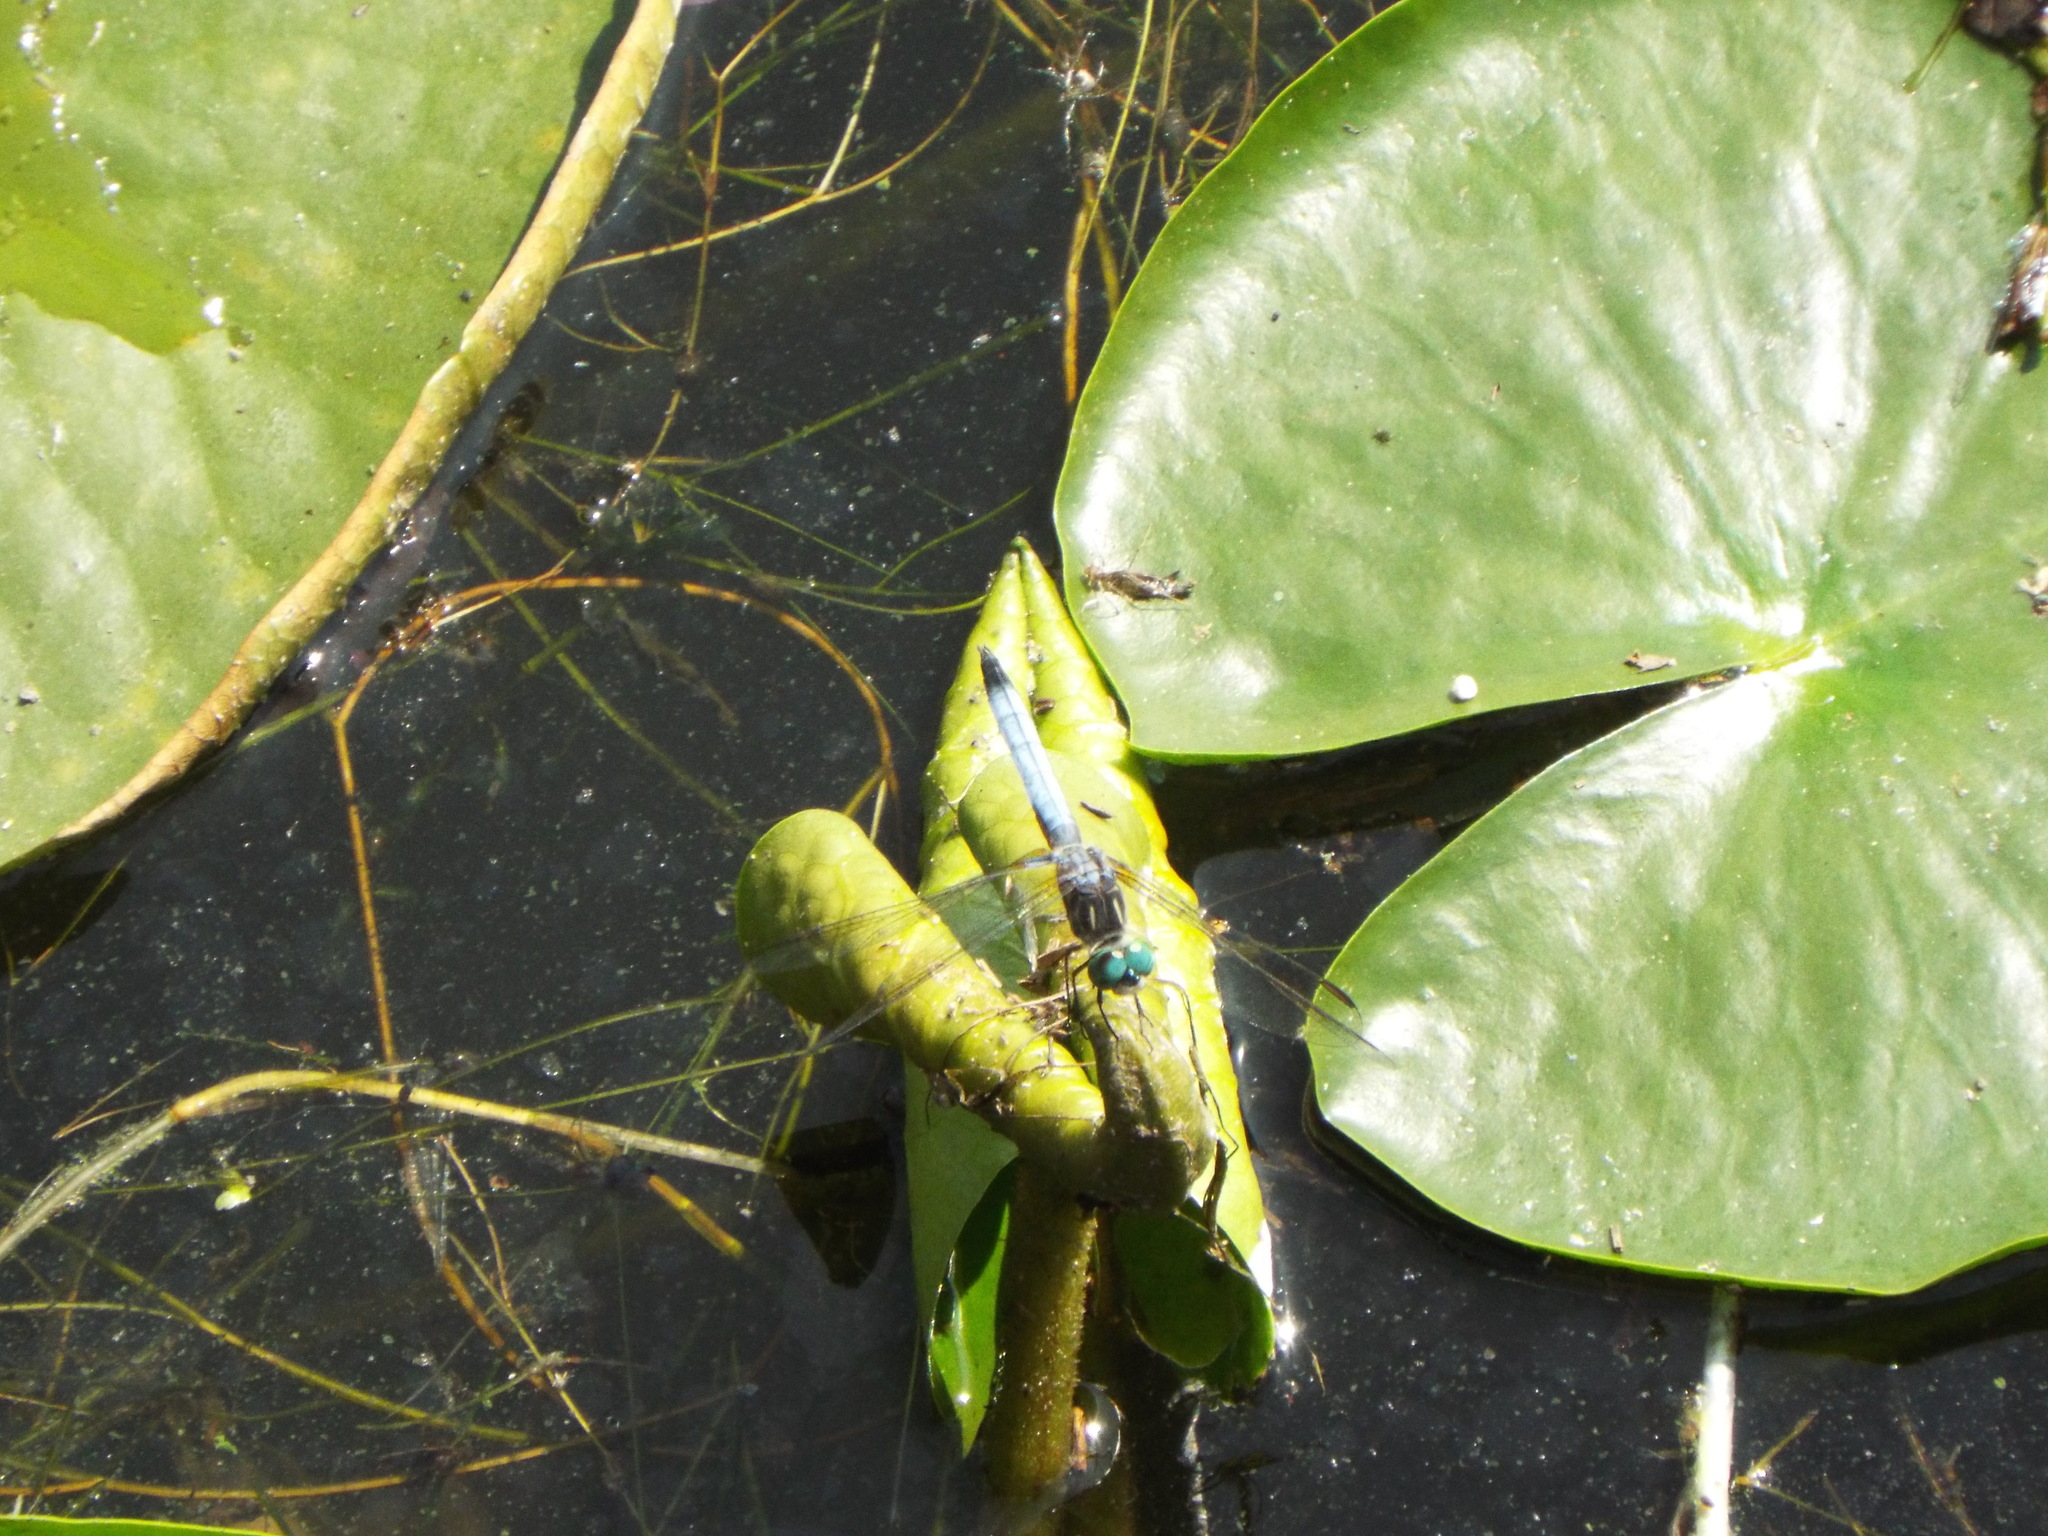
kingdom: Animalia
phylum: Arthropoda
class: Insecta
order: Odonata
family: Libellulidae
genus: Pachydiplax
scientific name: Pachydiplax longipennis
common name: Blue dasher
